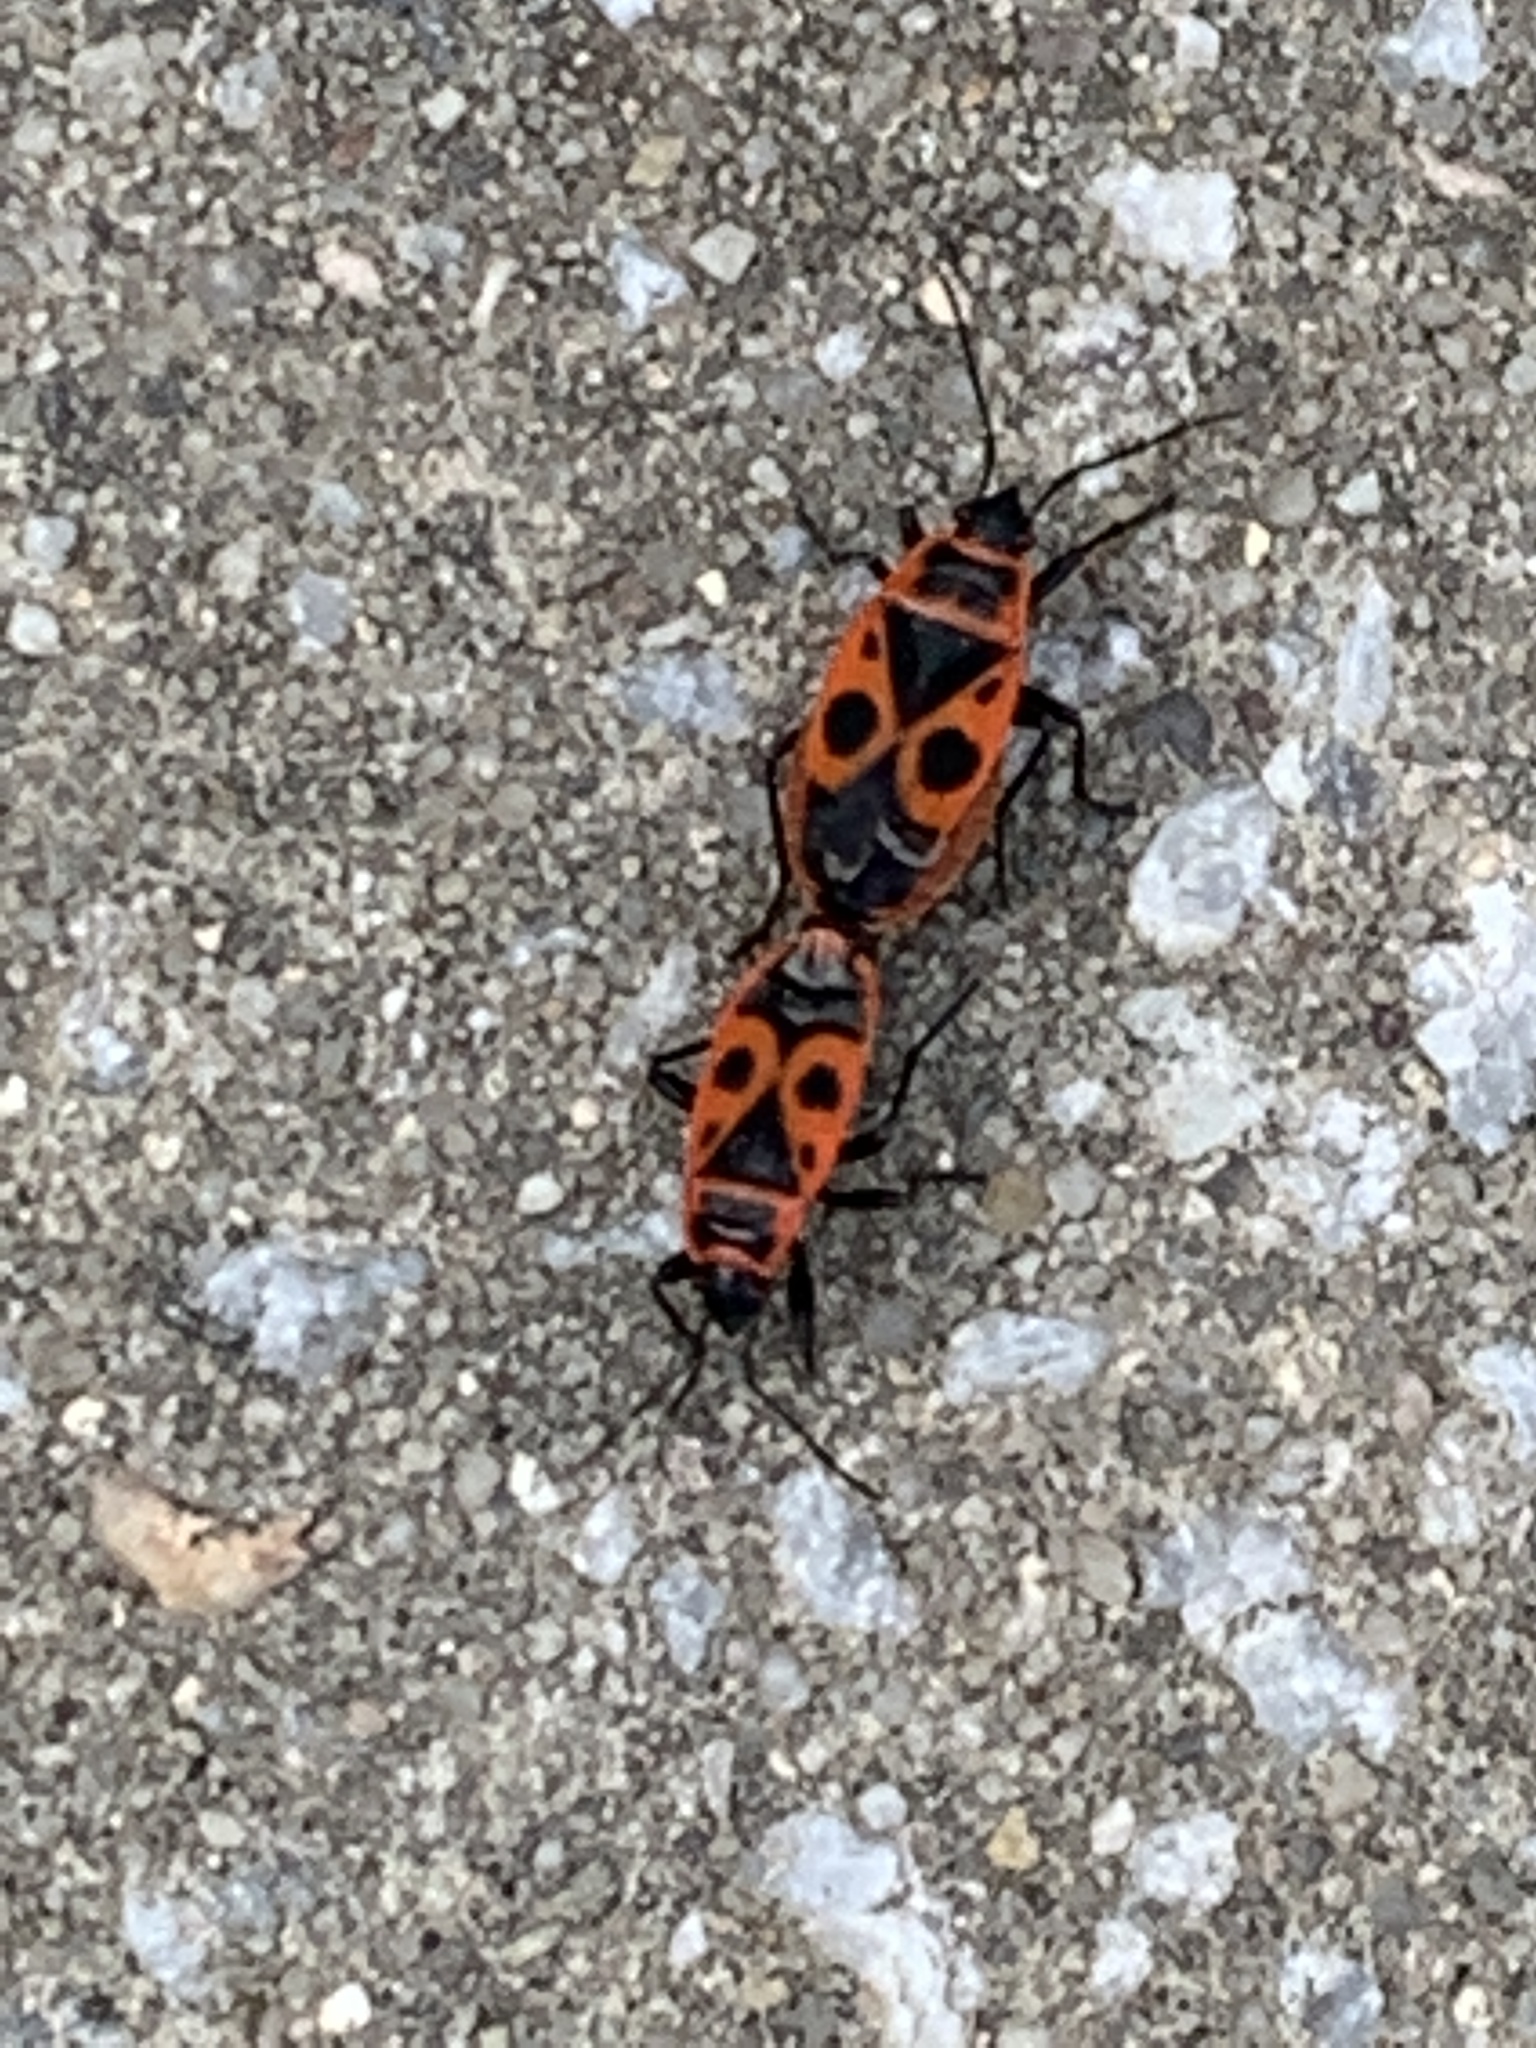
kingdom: Animalia
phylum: Arthropoda
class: Insecta
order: Hemiptera
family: Pyrrhocoridae
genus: Pyrrhocoris
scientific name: Pyrrhocoris apterus
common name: Firebug
